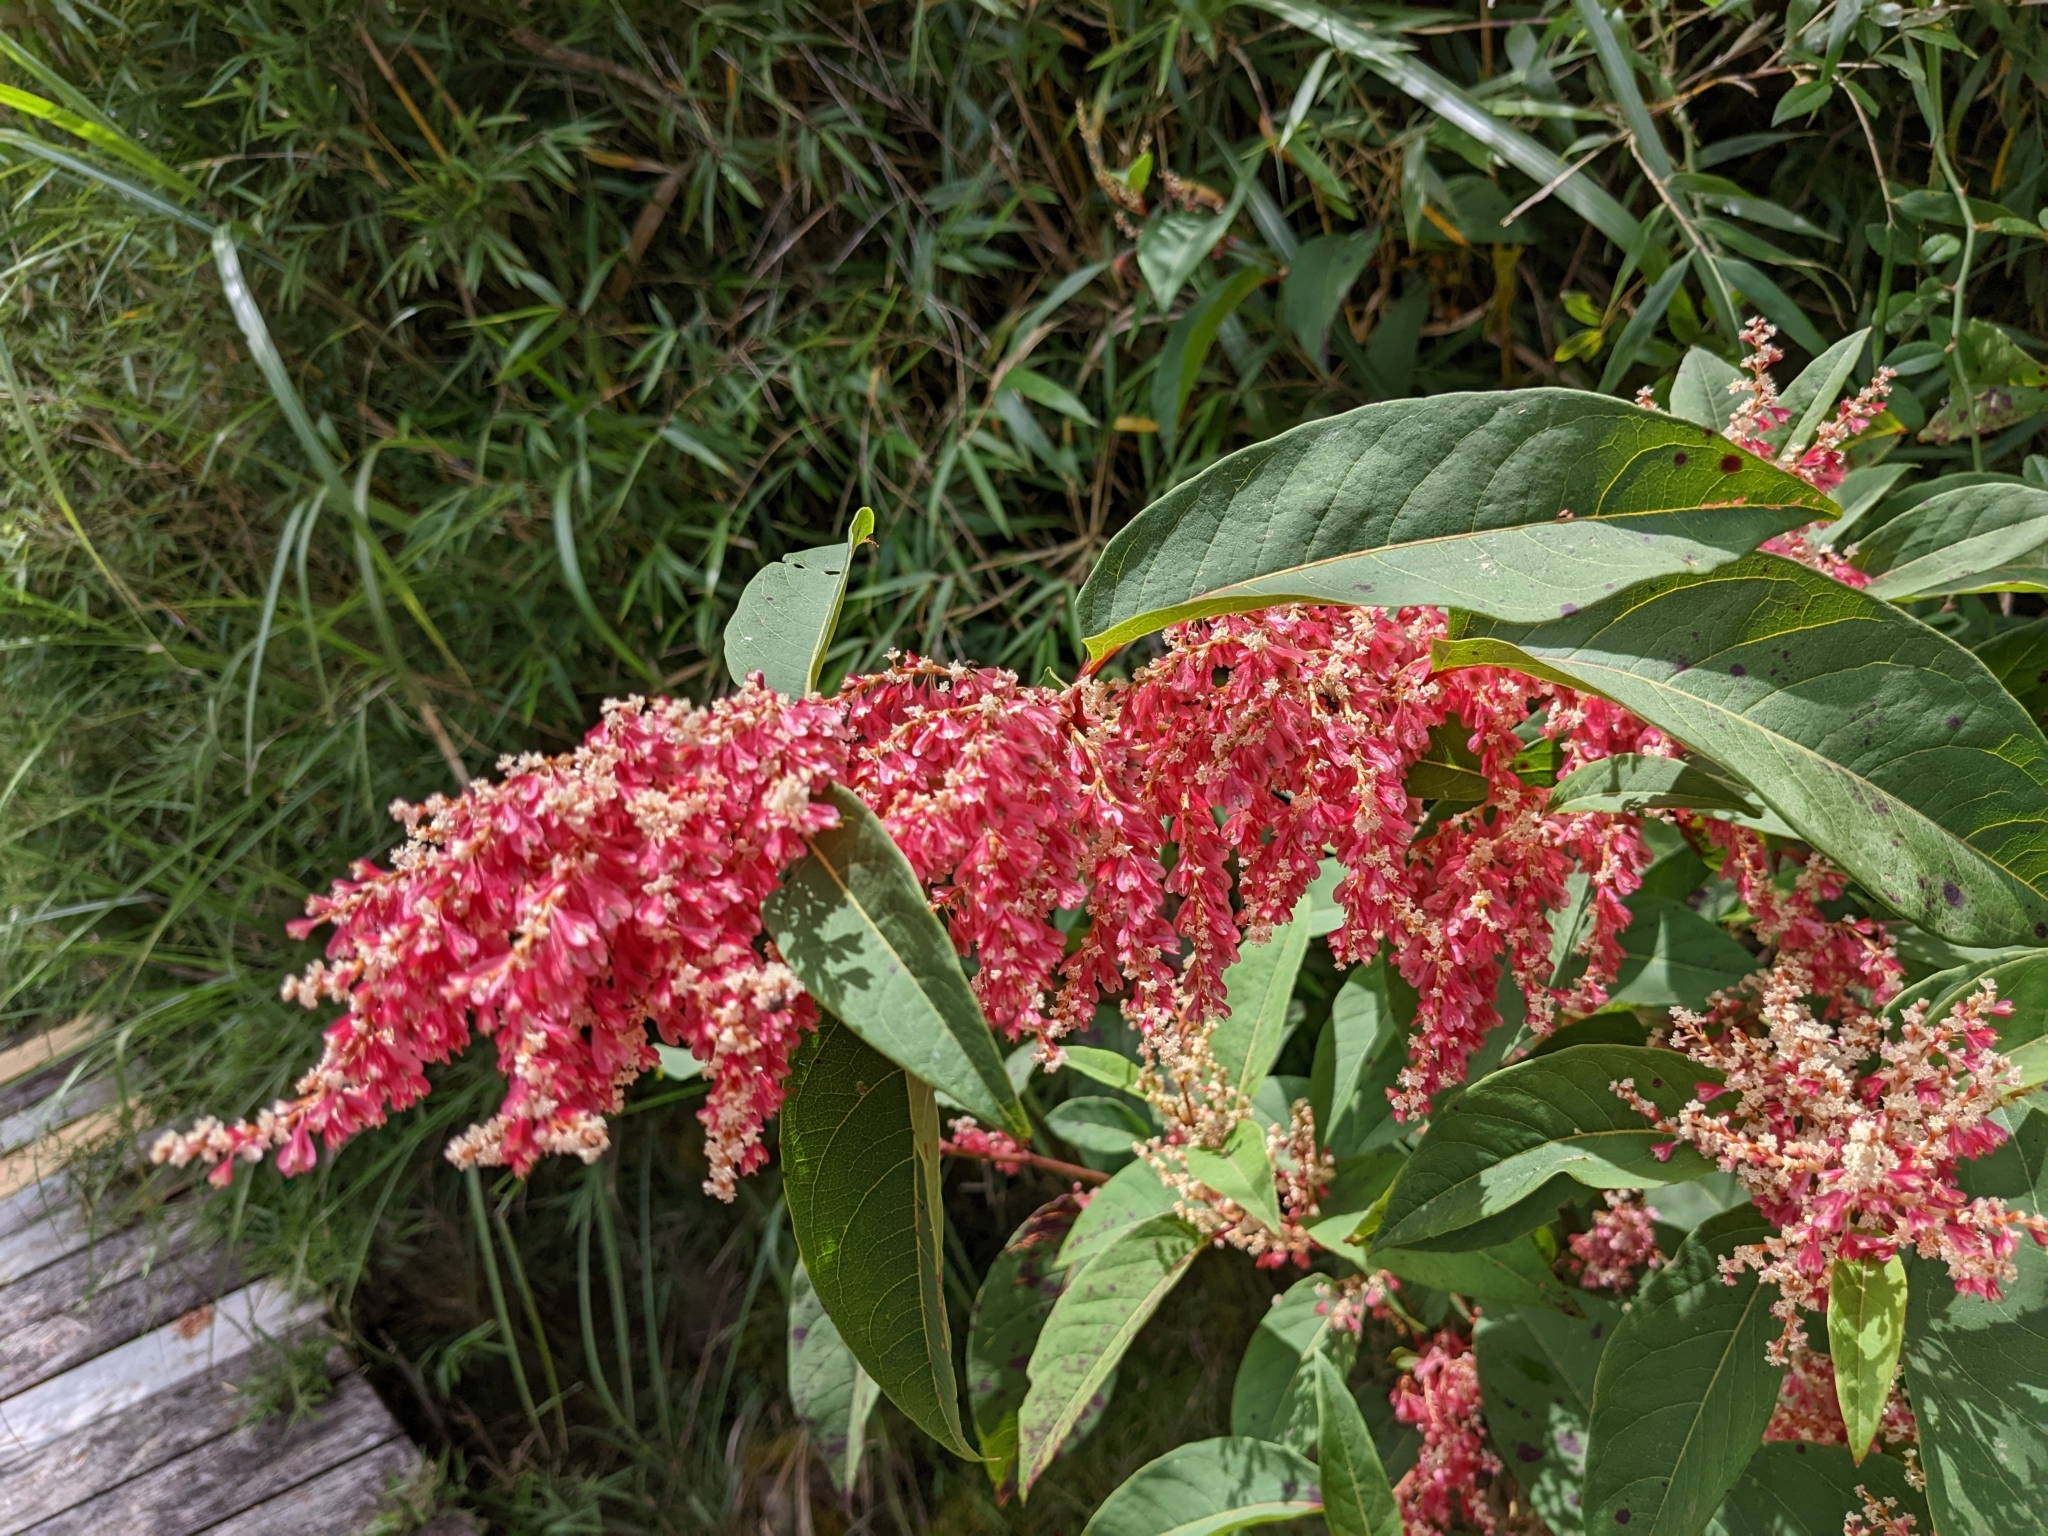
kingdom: Plantae
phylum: Tracheophyta
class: Magnoliopsida
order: Caryophyllales
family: Polygonaceae
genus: Reynoutria
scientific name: Reynoutria japonica
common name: Japanese knotweed
